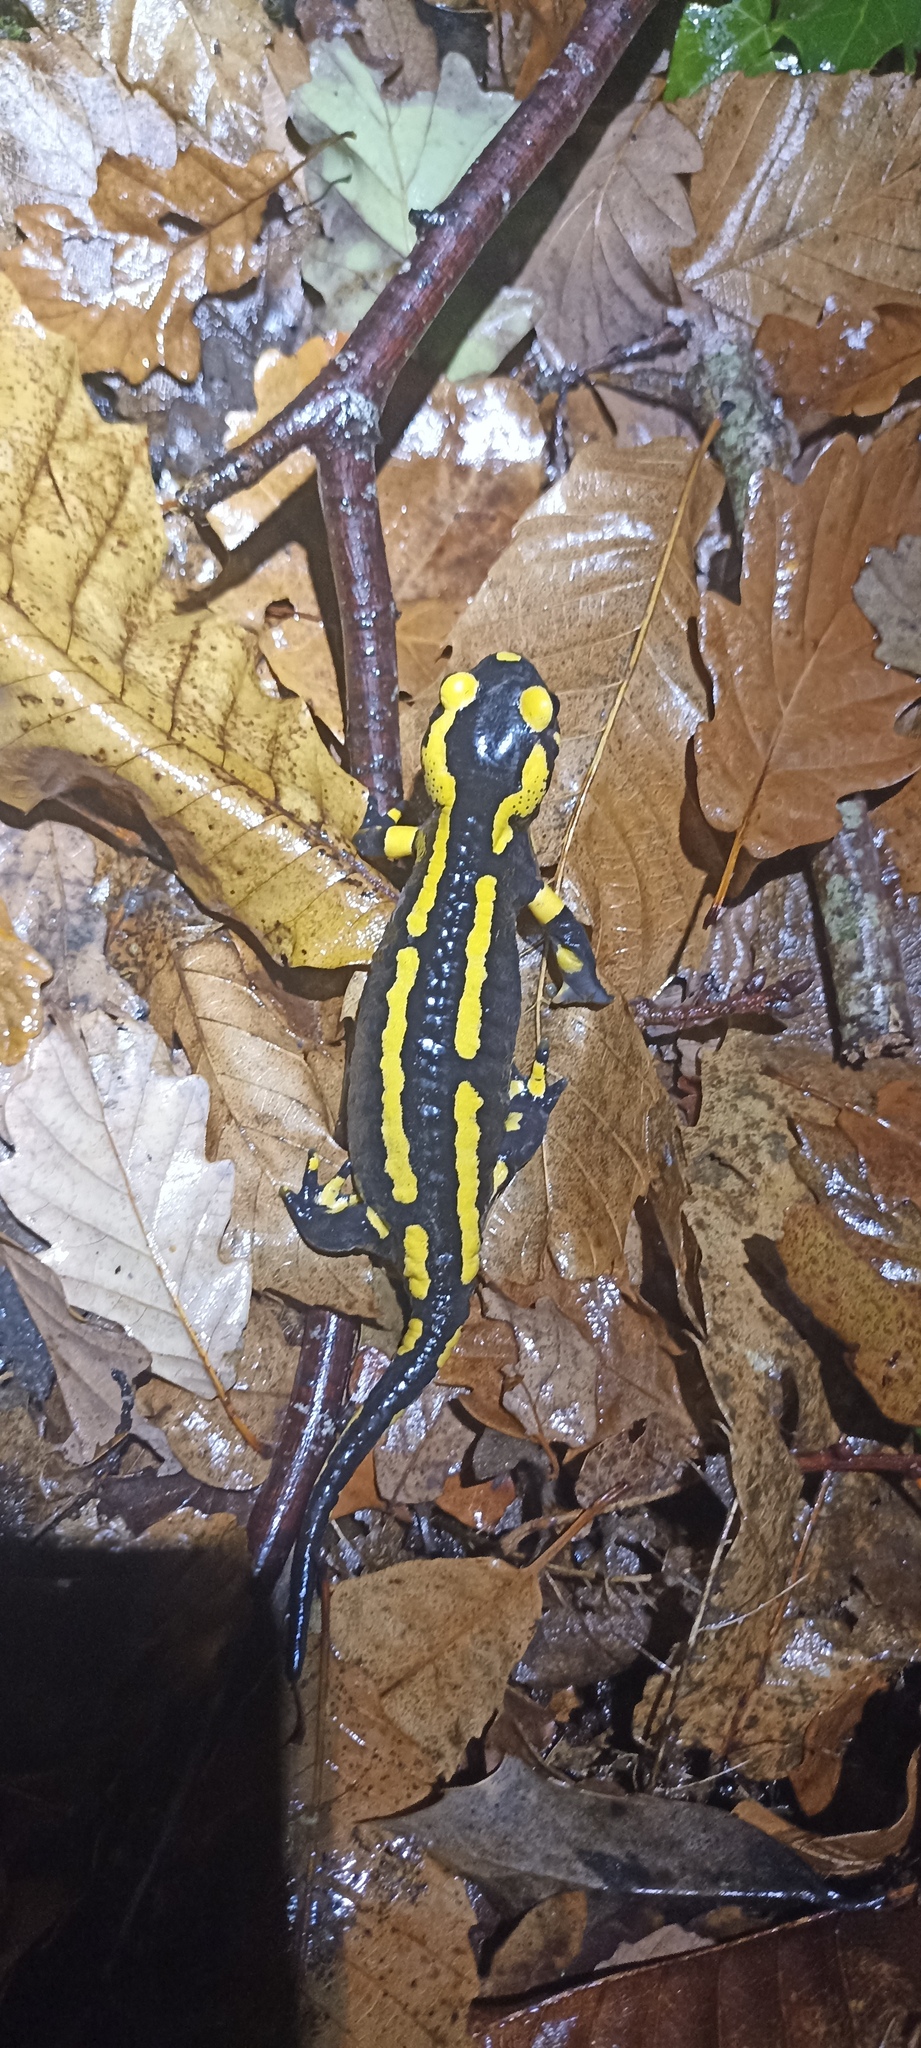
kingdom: Animalia
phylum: Chordata
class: Amphibia
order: Caudata
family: Salamandridae
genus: Salamandra
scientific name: Salamandra salamandra
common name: Fire salamander
